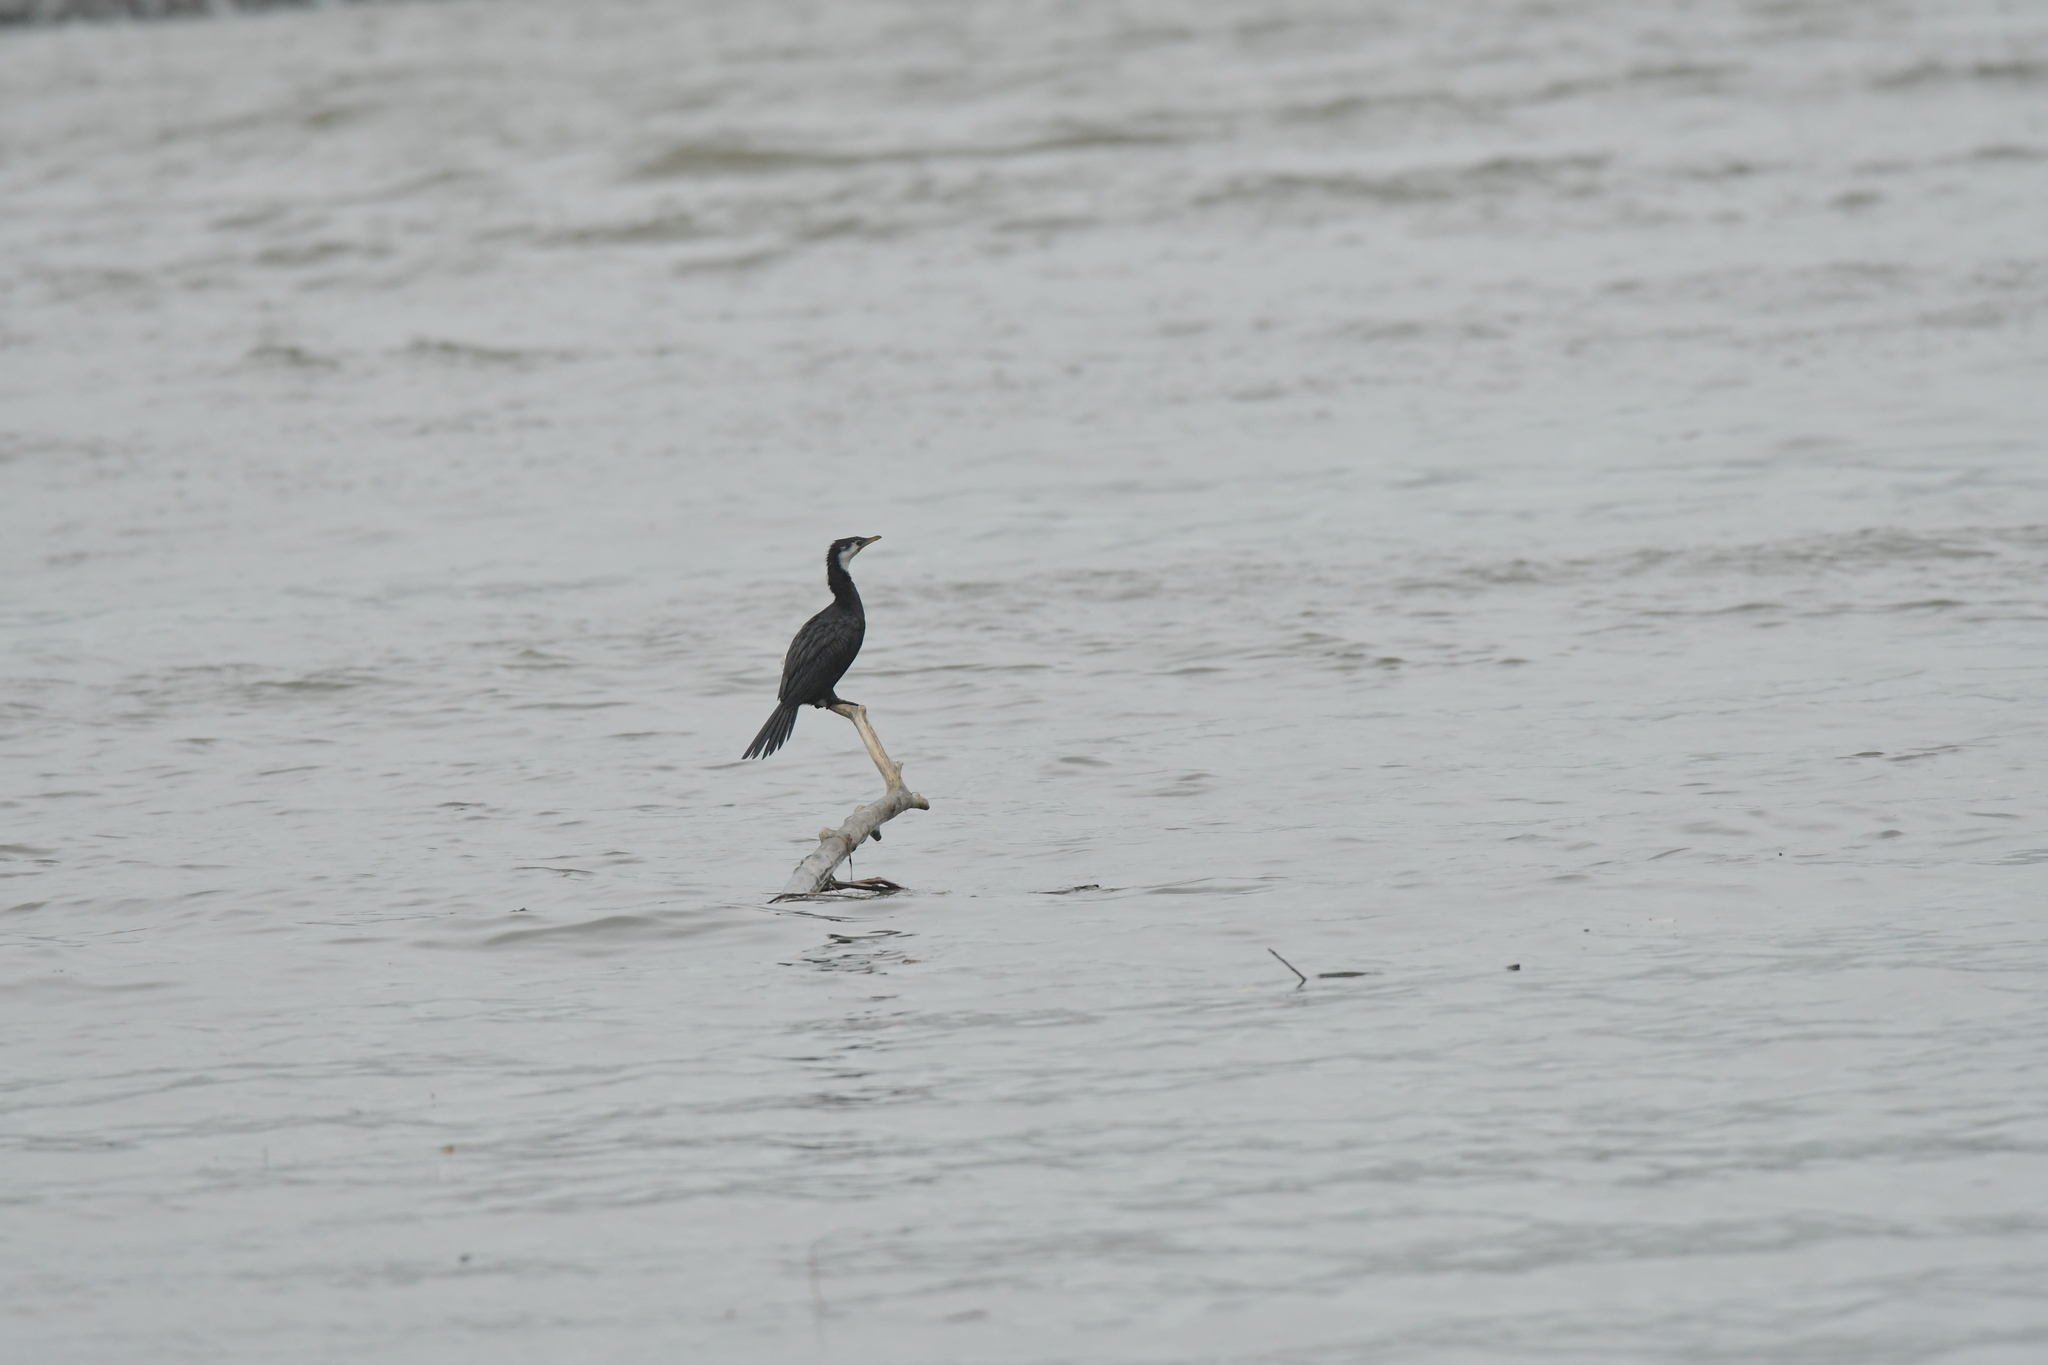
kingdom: Animalia
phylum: Chordata
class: Aves
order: Suliformes
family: Phalacrocoracidae
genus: Microcarbo
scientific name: Microcarbo melanoleucos
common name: Little pied cormorant
